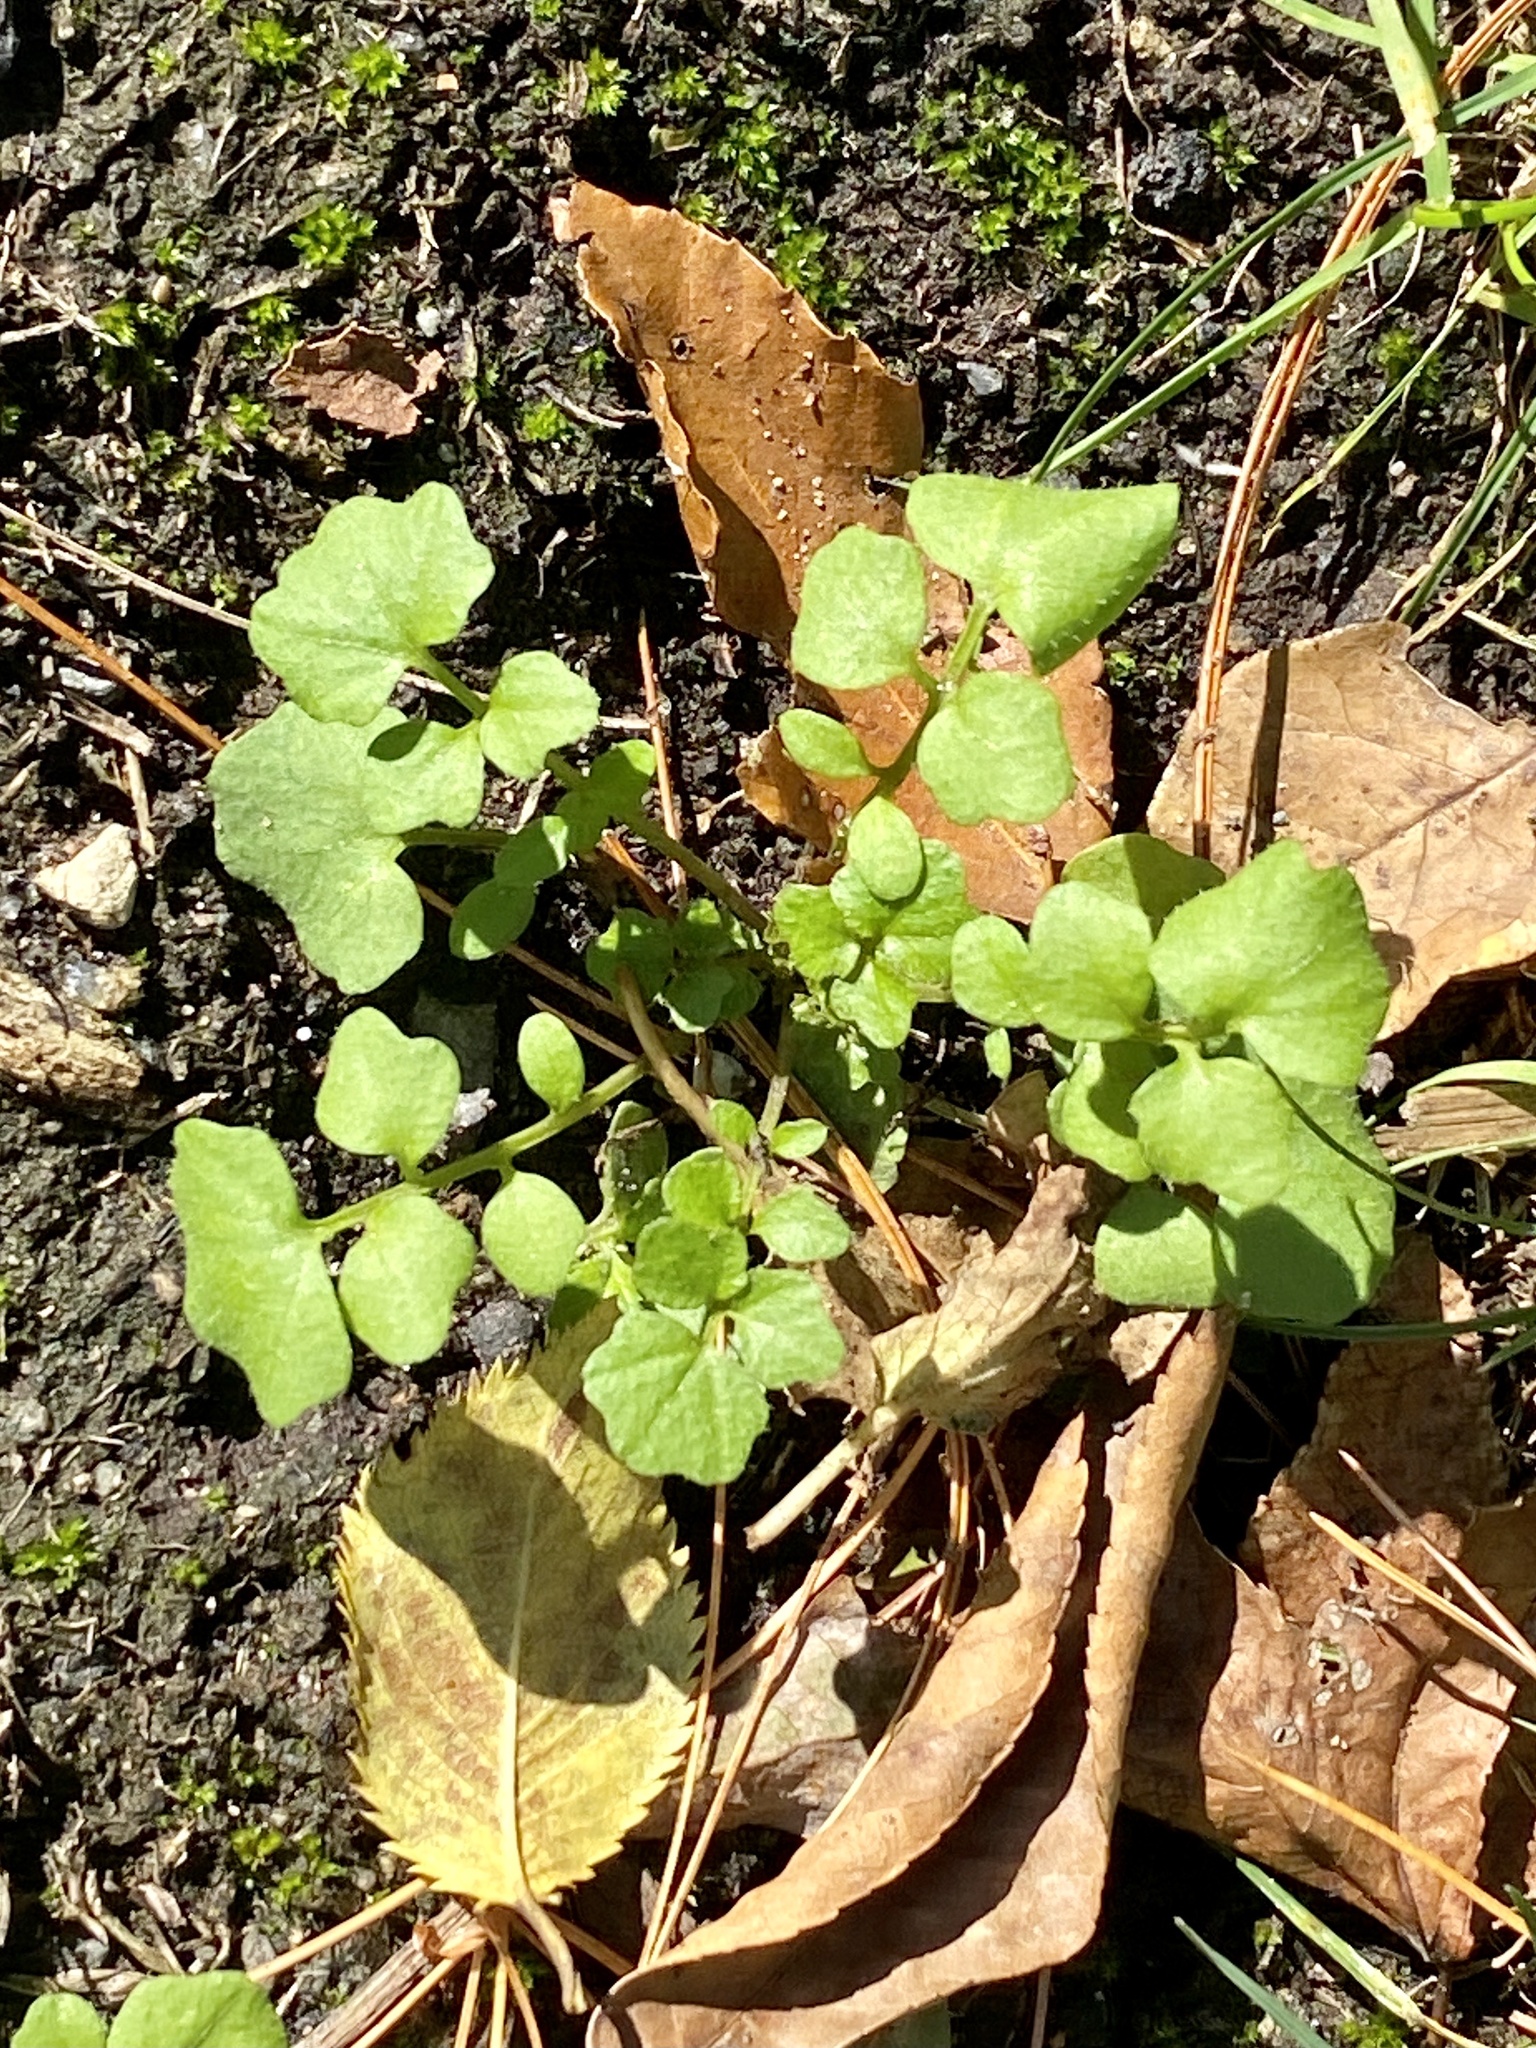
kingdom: Plantae
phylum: Tracheophyta
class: Magnoliopsida
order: Brassicales
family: Brassicaceae
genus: Cardamine
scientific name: Cardamine hirsuta
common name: Hairy bittercress
